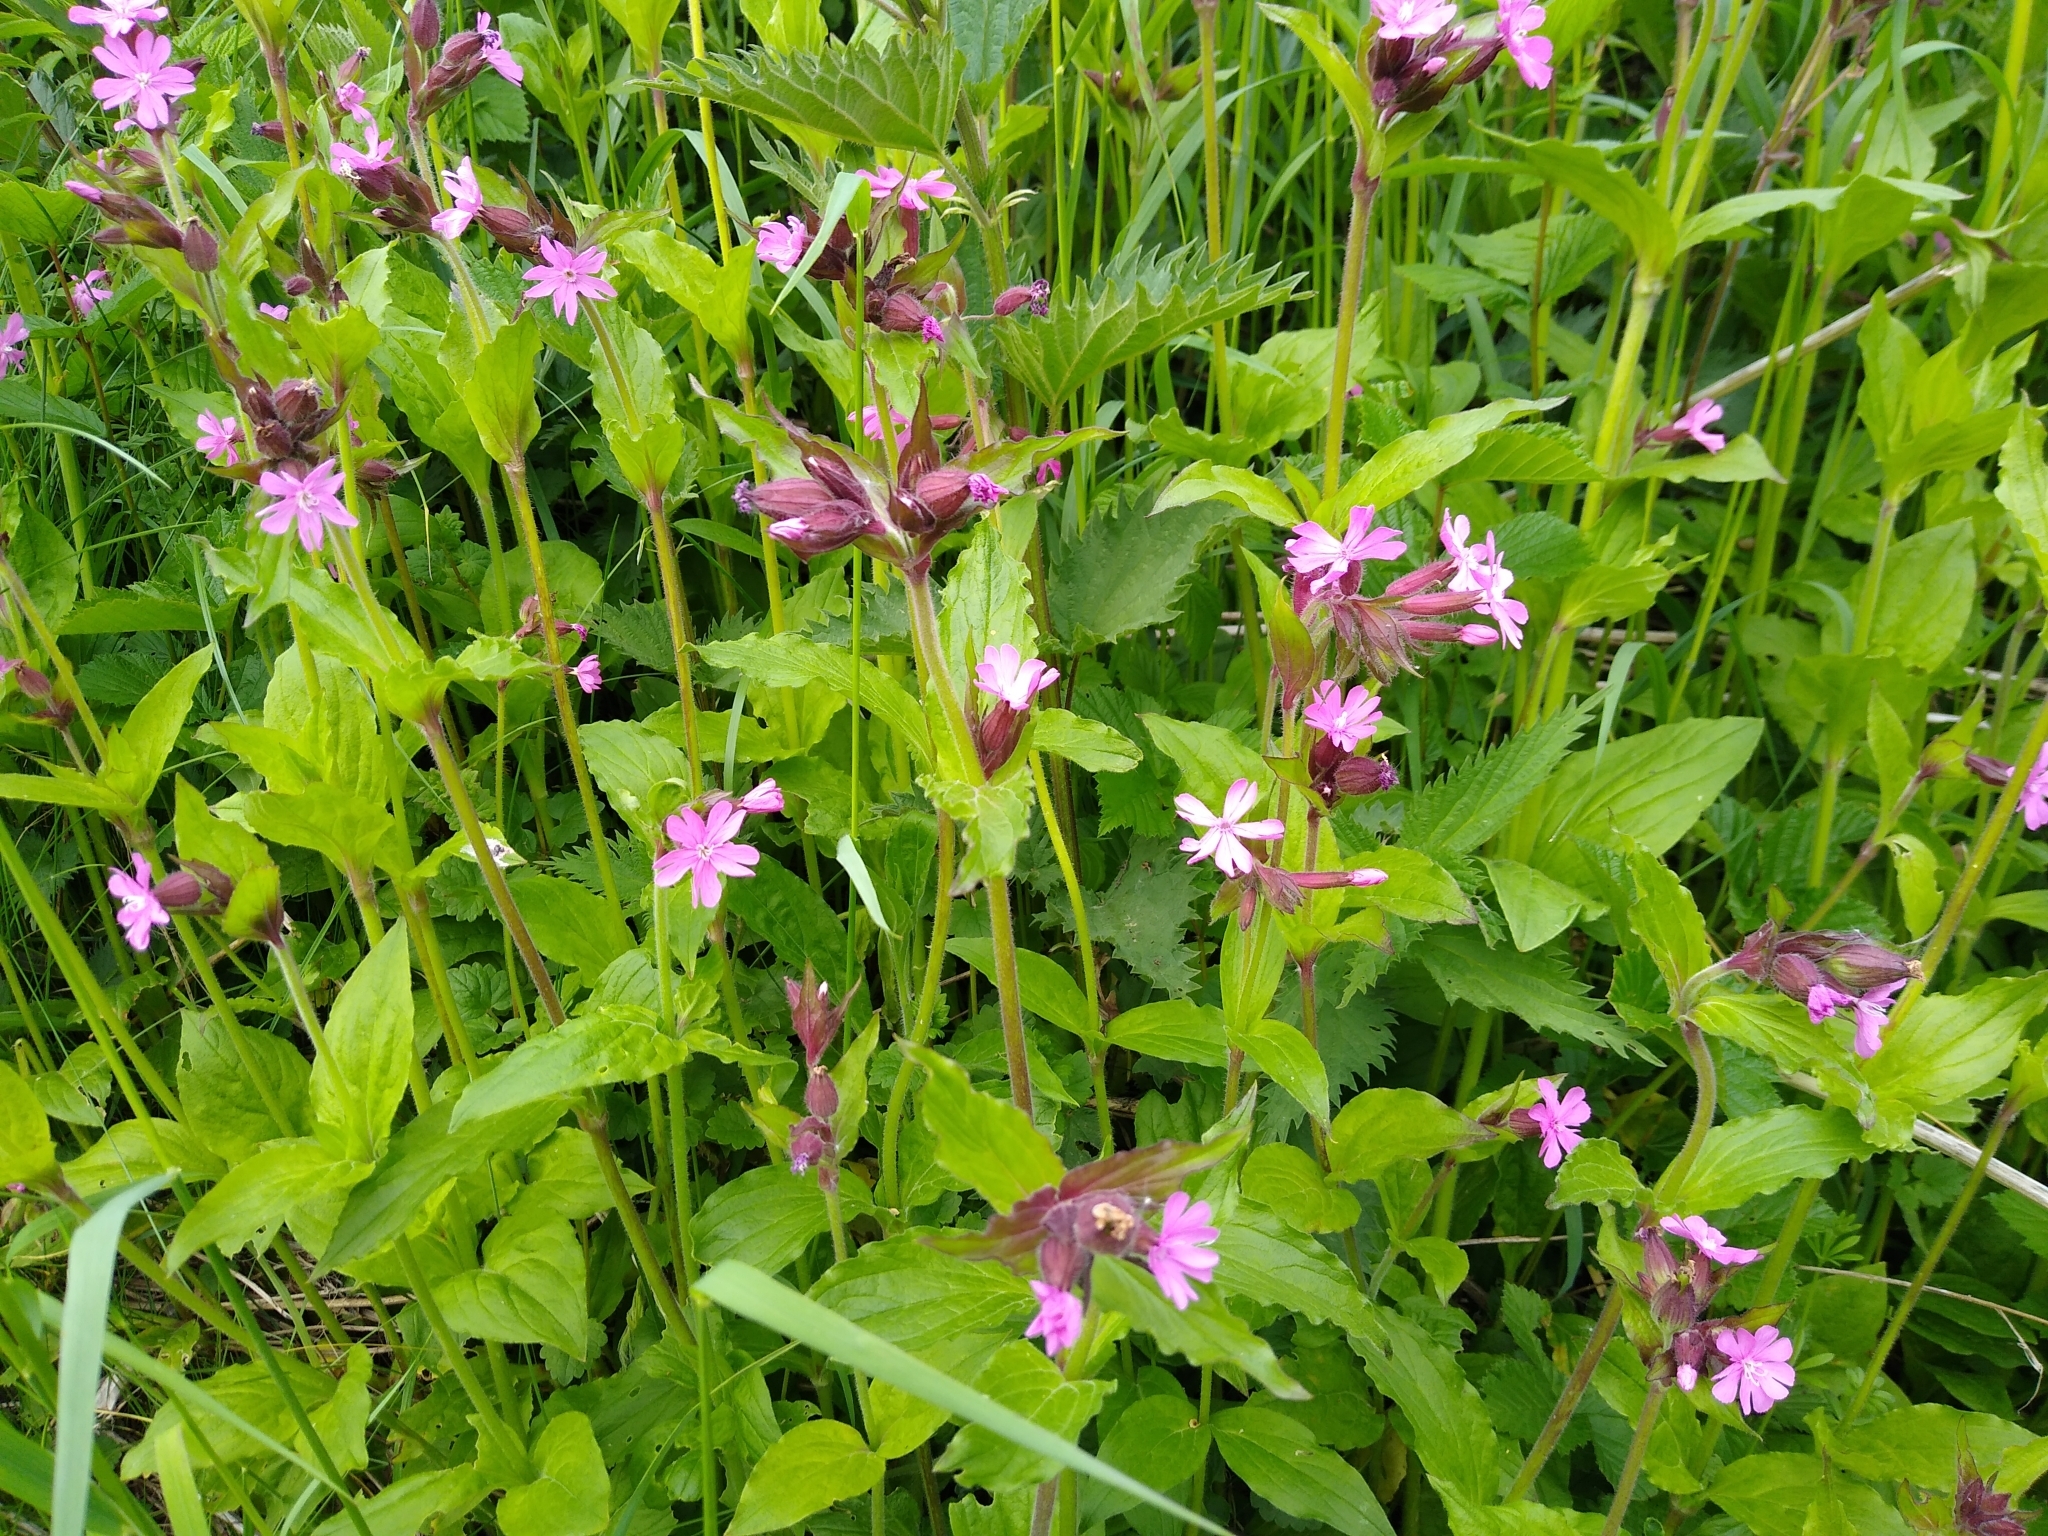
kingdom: Plantae
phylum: Tracheophyta
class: Magnoliopsida
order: Caryophyllales
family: Caryophyllaceae
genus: Silene
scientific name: Silene dioica
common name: Red campion
